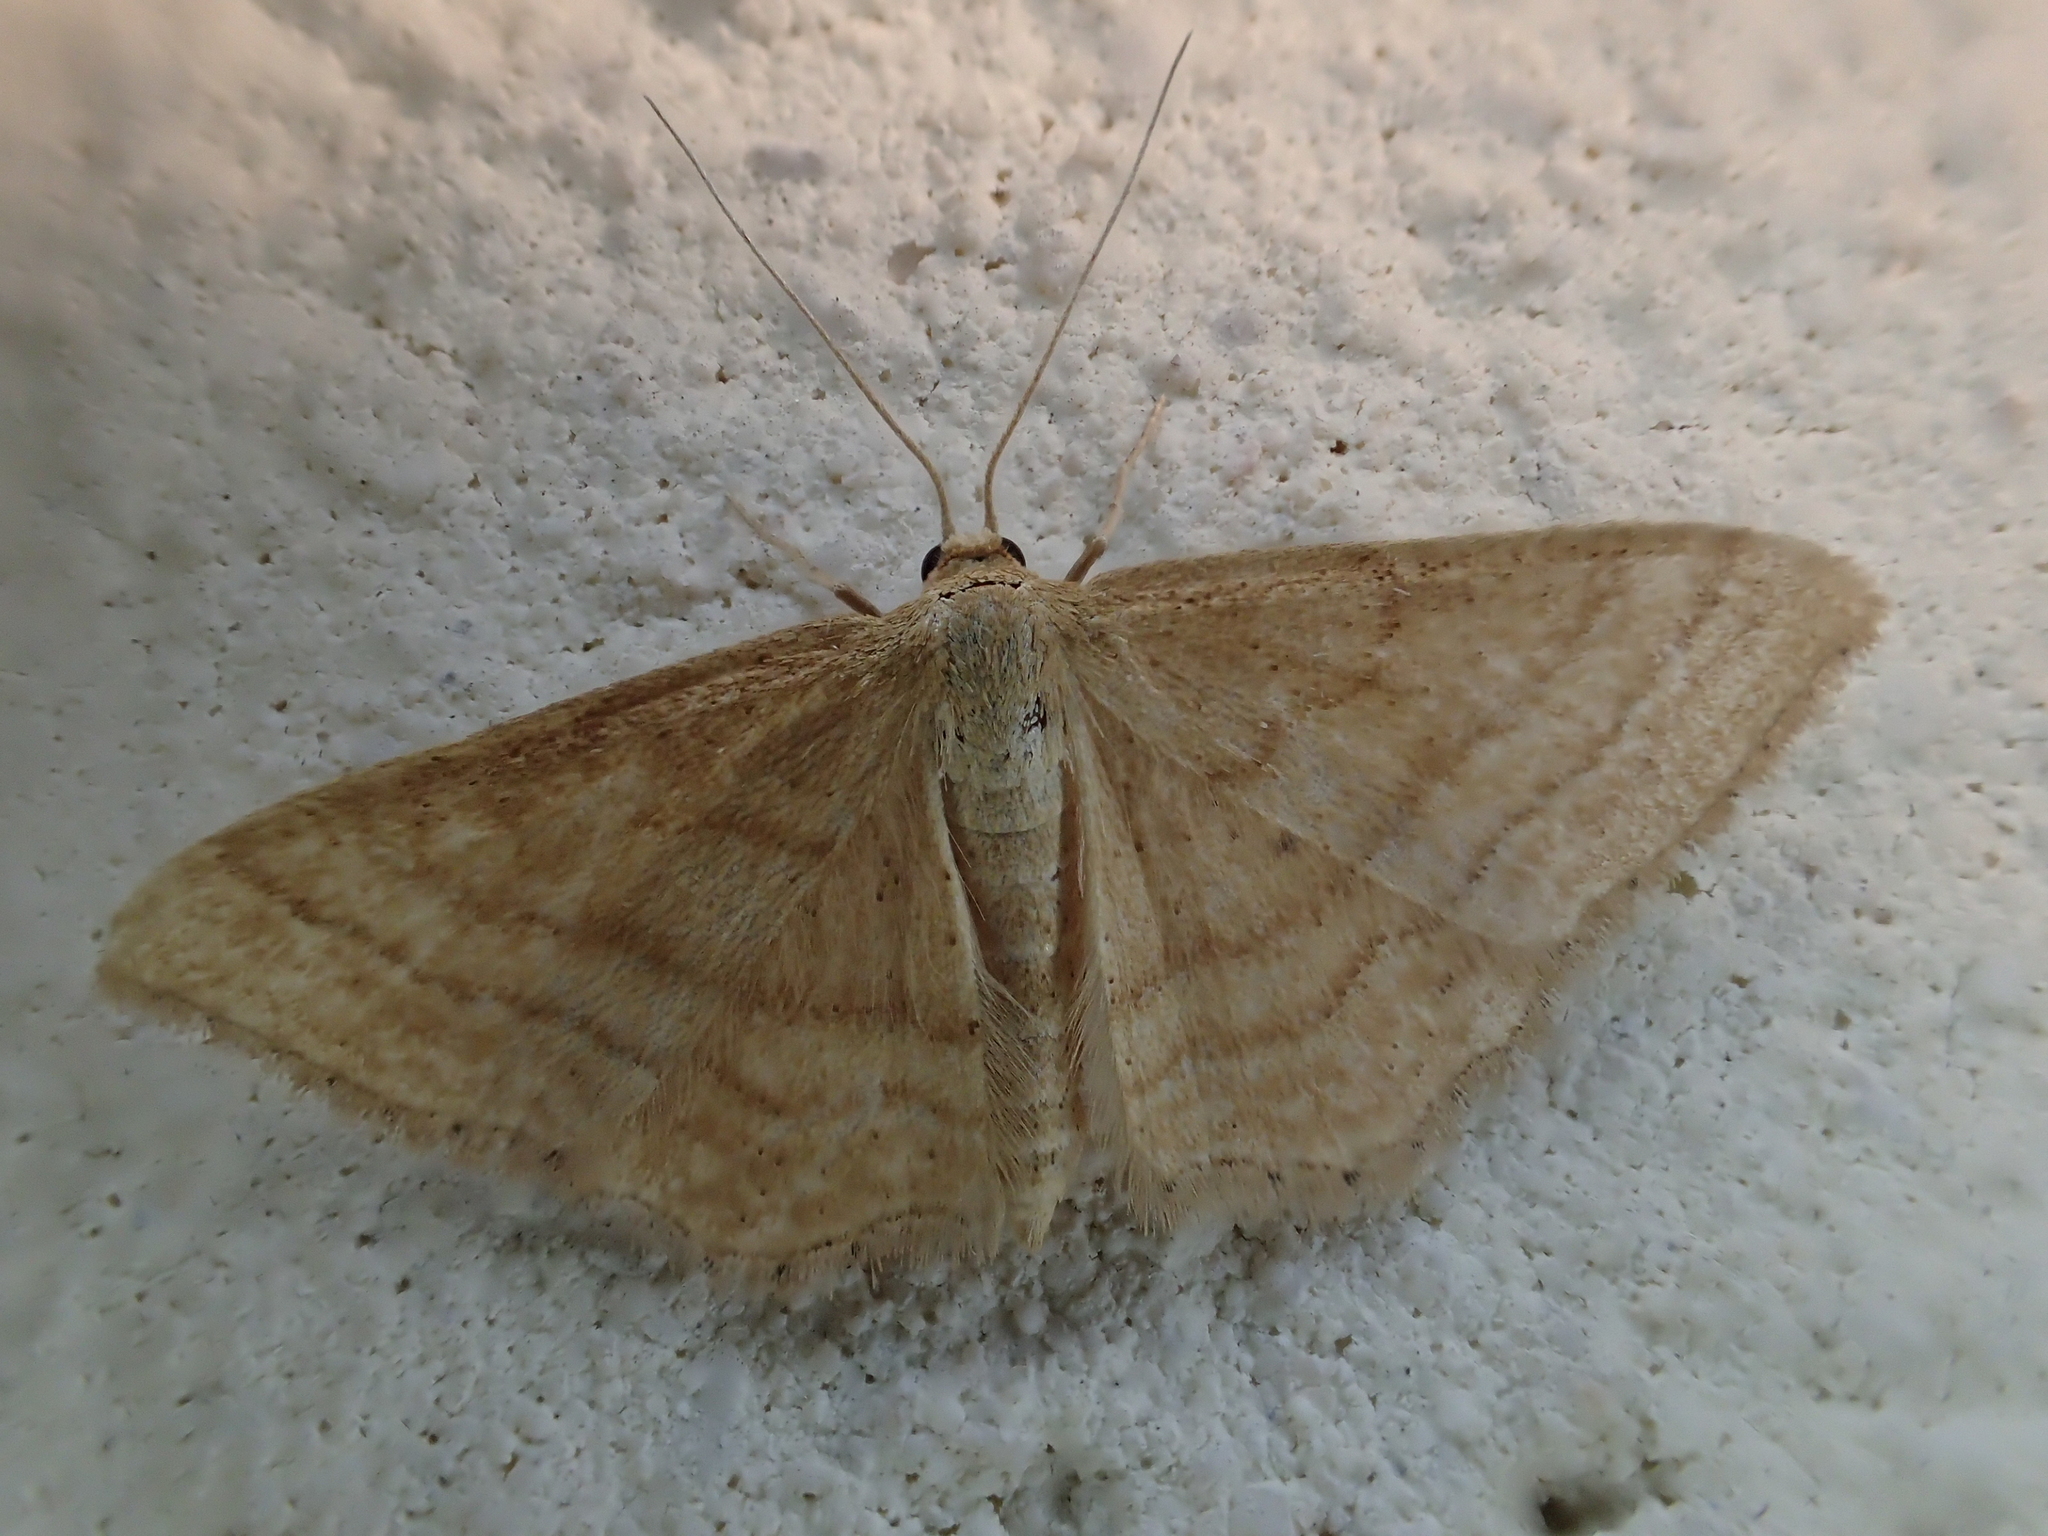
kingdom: Animalia
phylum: Arthropoda
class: Insecta
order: Lepidoptera
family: Geometridae
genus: Idaea
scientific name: Idaea ochrata
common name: Bright wave
